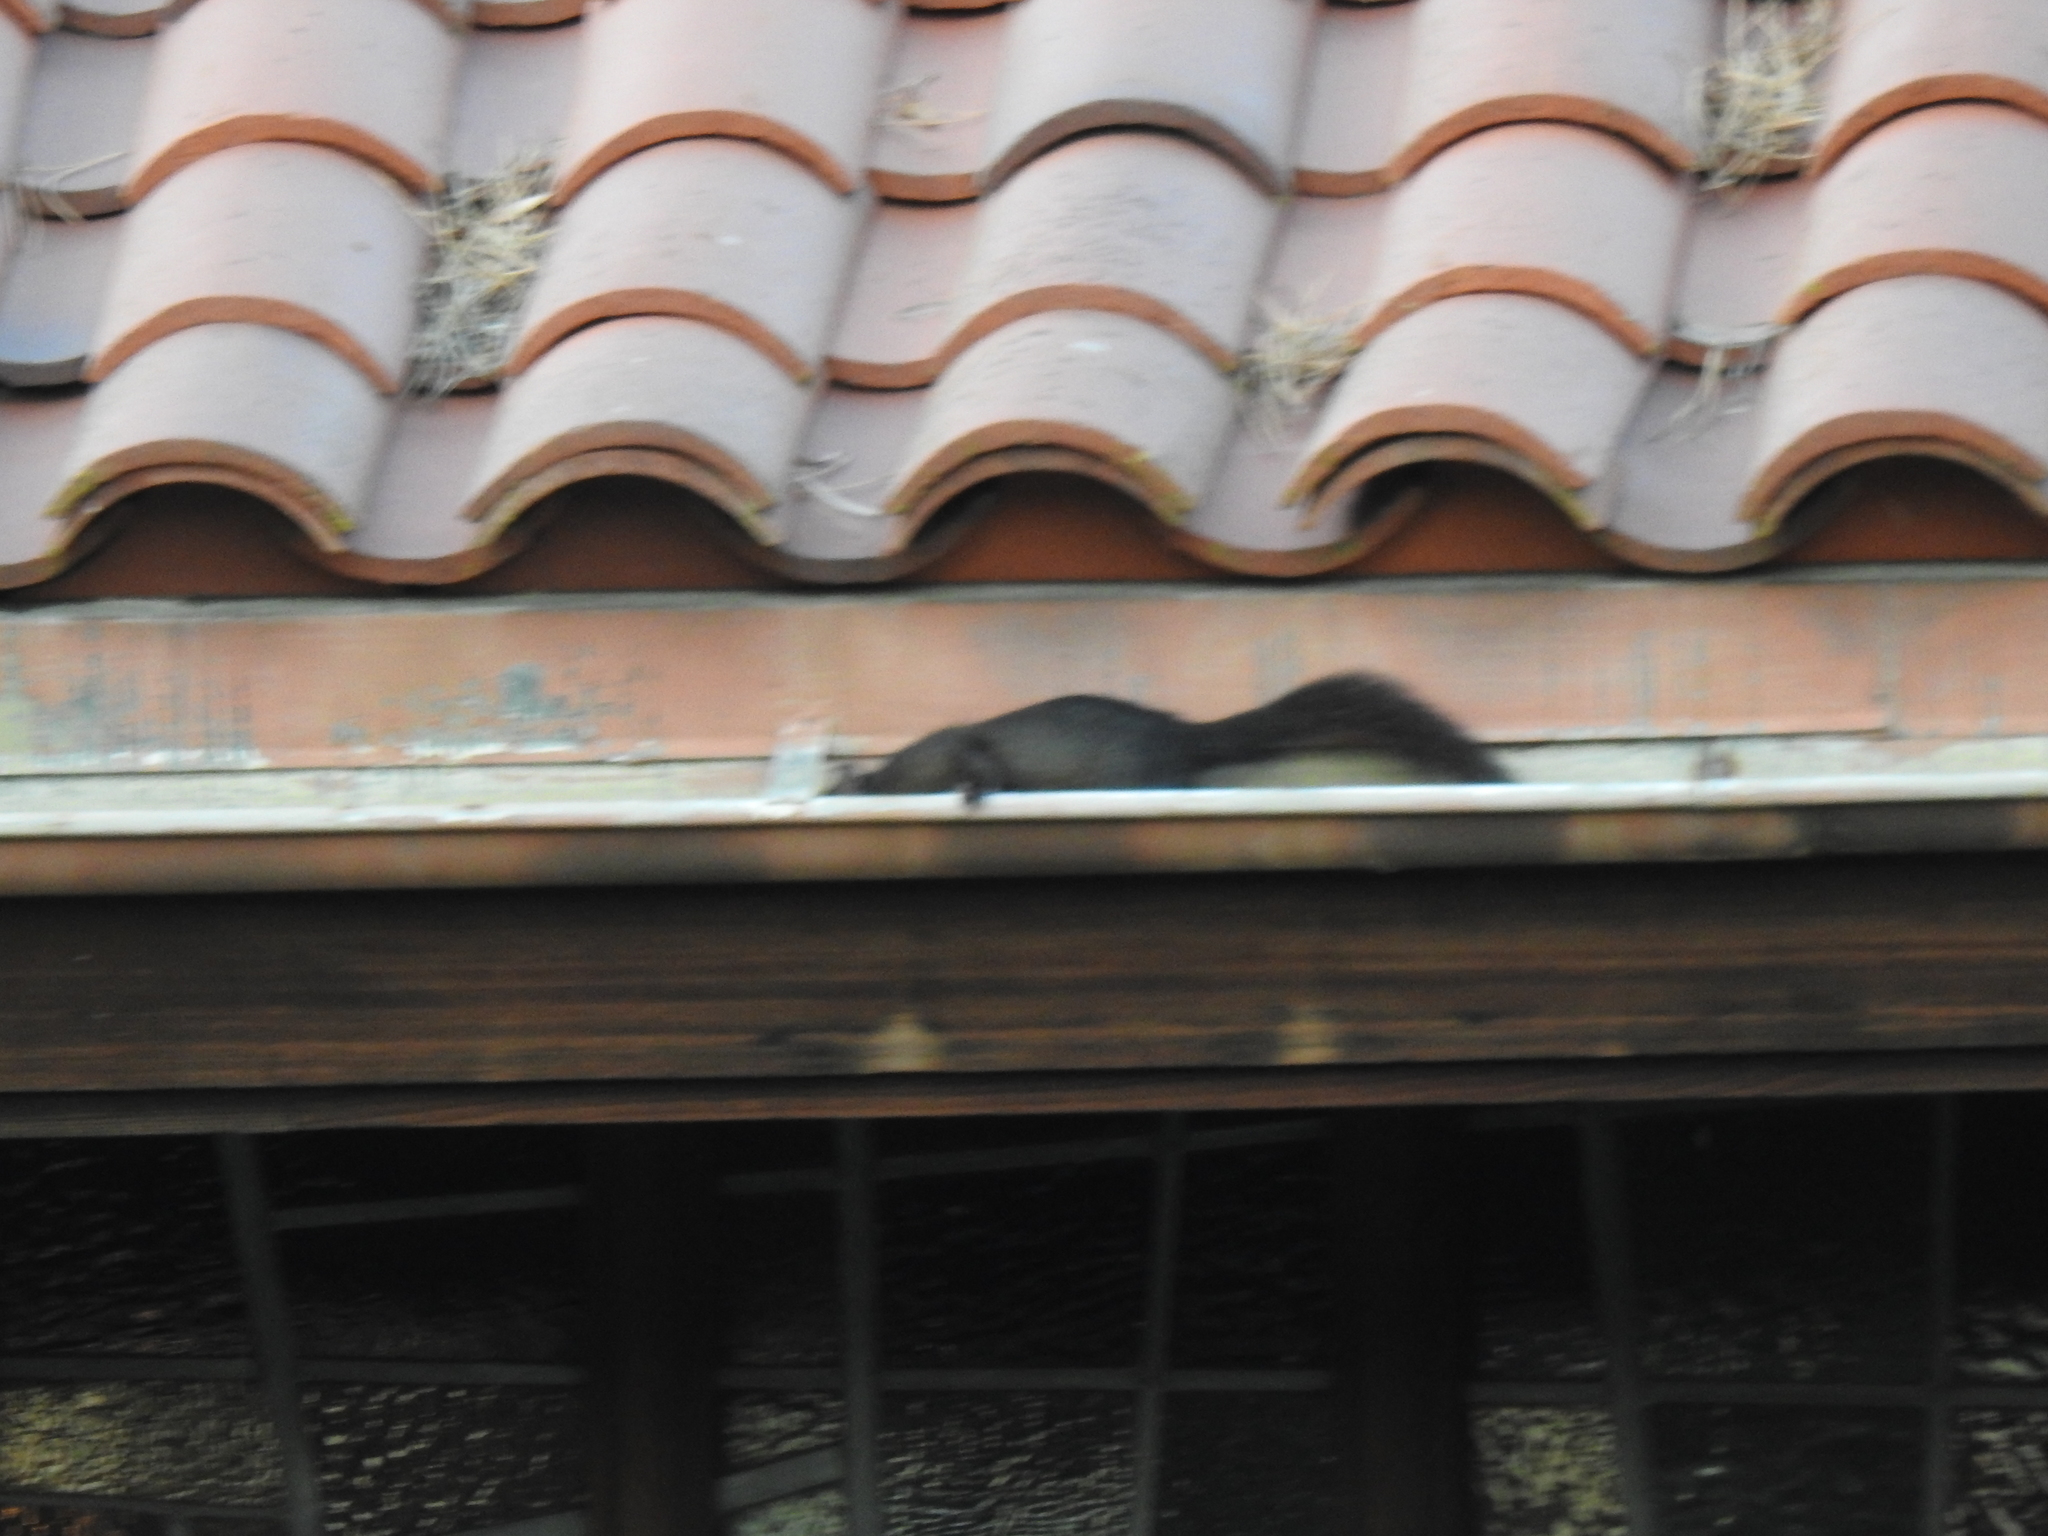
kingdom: Animalia
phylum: Chordata
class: Mammalia
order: Rodentia
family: Sciuridae
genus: Sciurus
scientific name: Sciurus carolinensis
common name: Eastern gray squirrel
